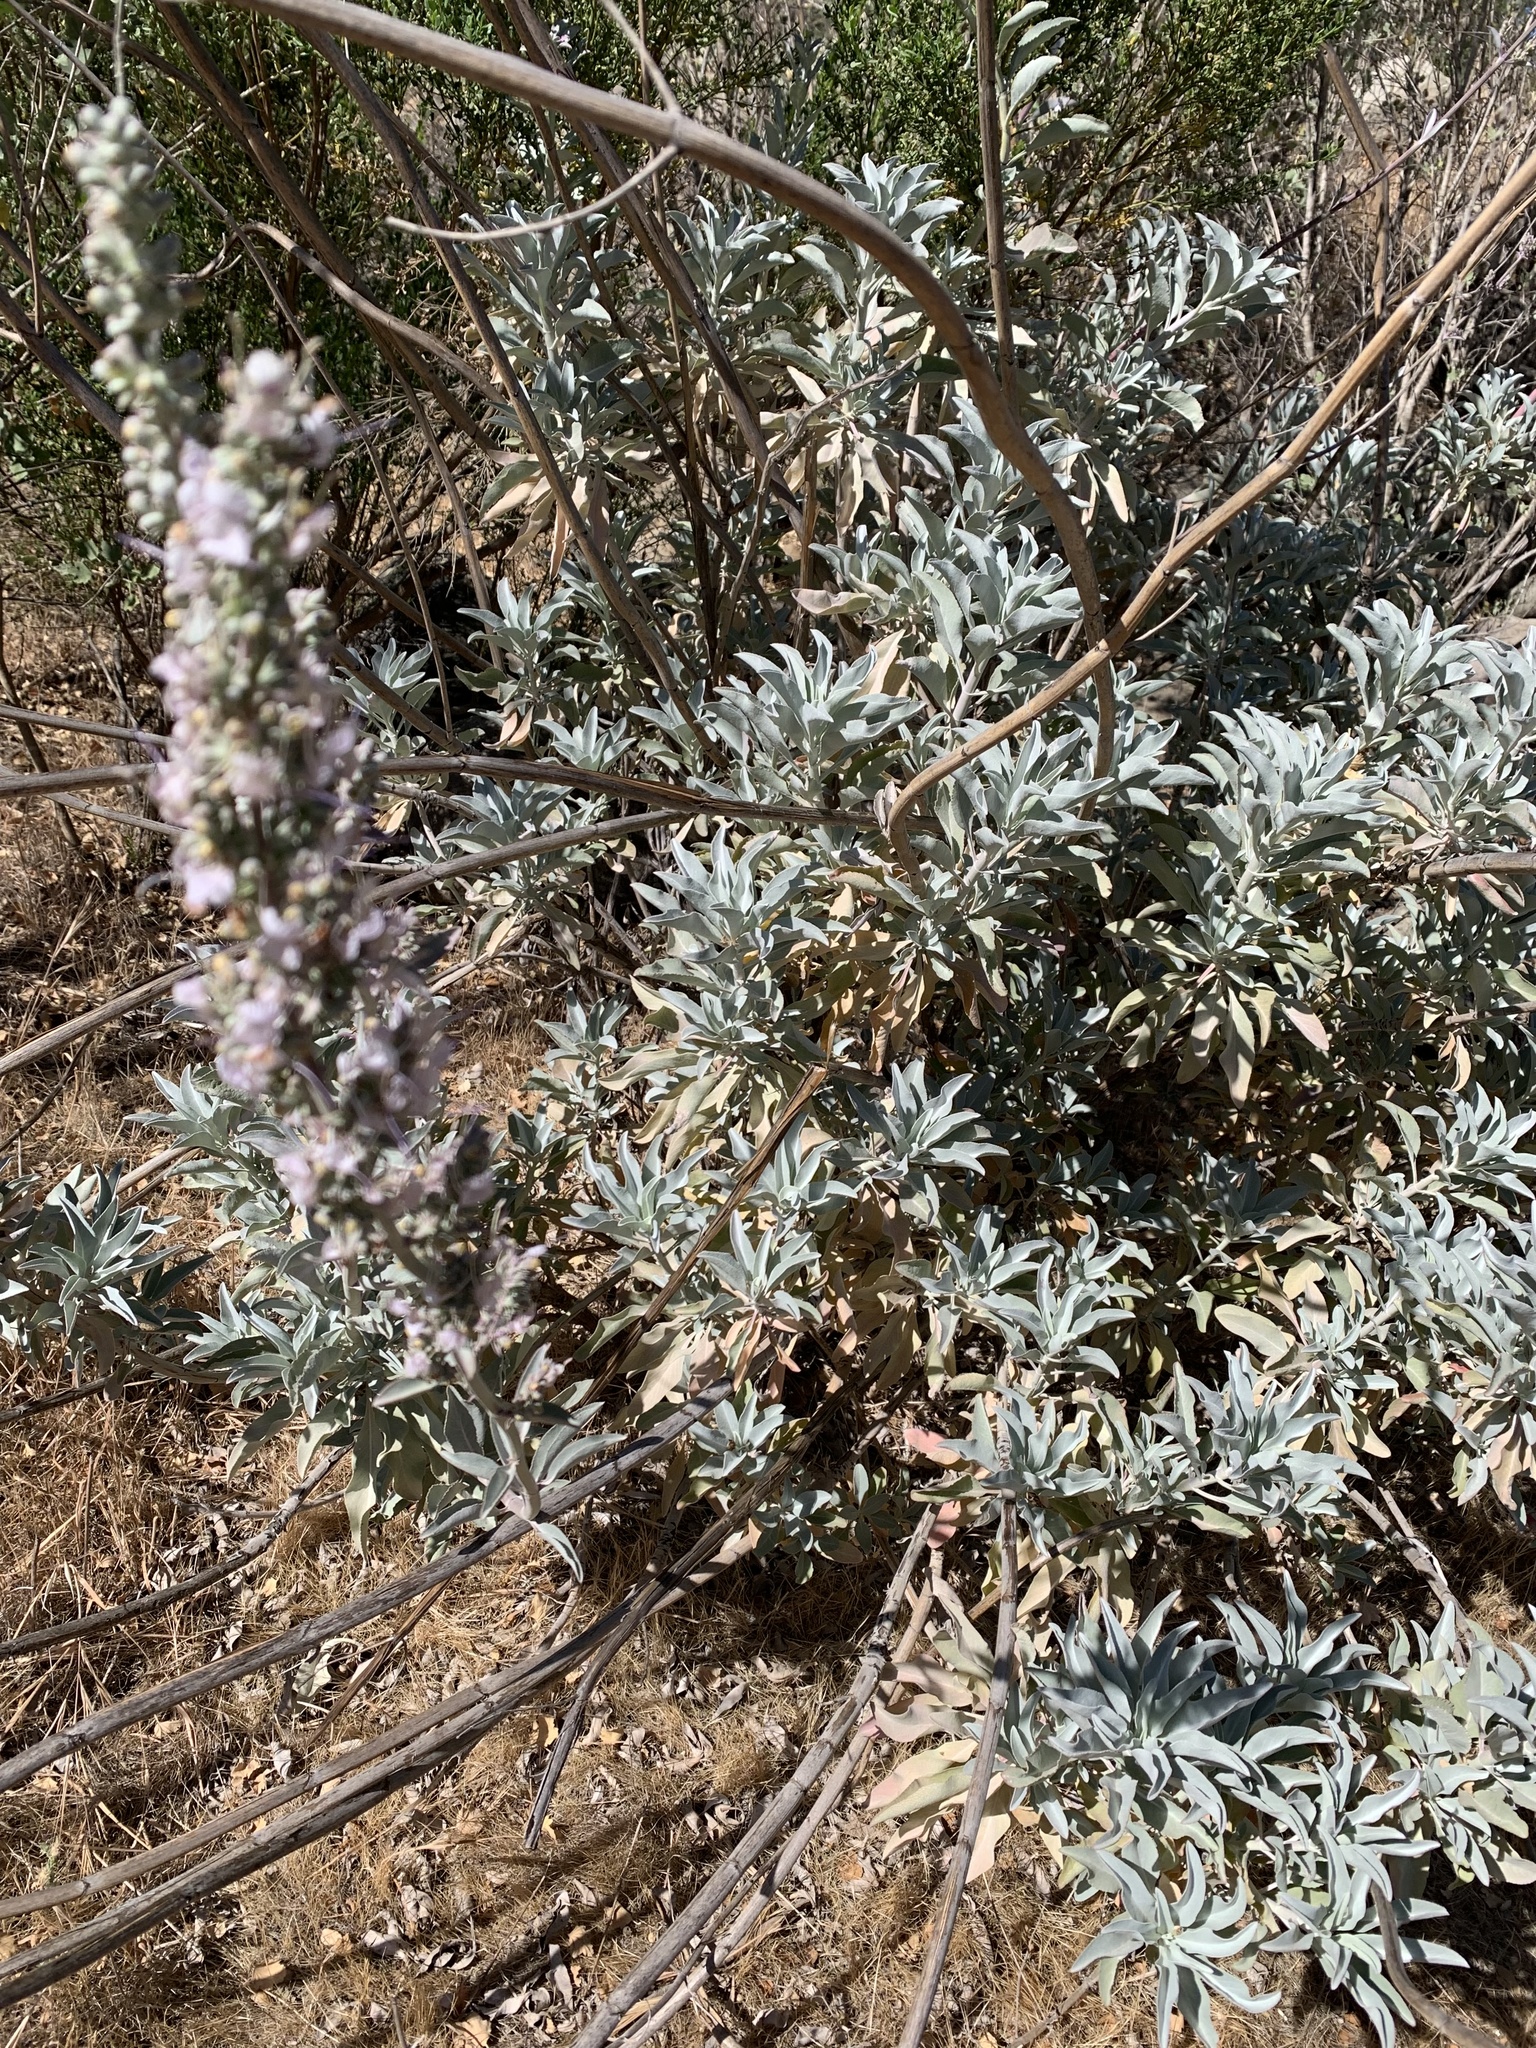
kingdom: Plantae
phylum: Tracheophyta
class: Magnoliopsida
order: Lamiales
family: Lamiaceae
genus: Salvia
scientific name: Salvia apiana
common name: White sage
